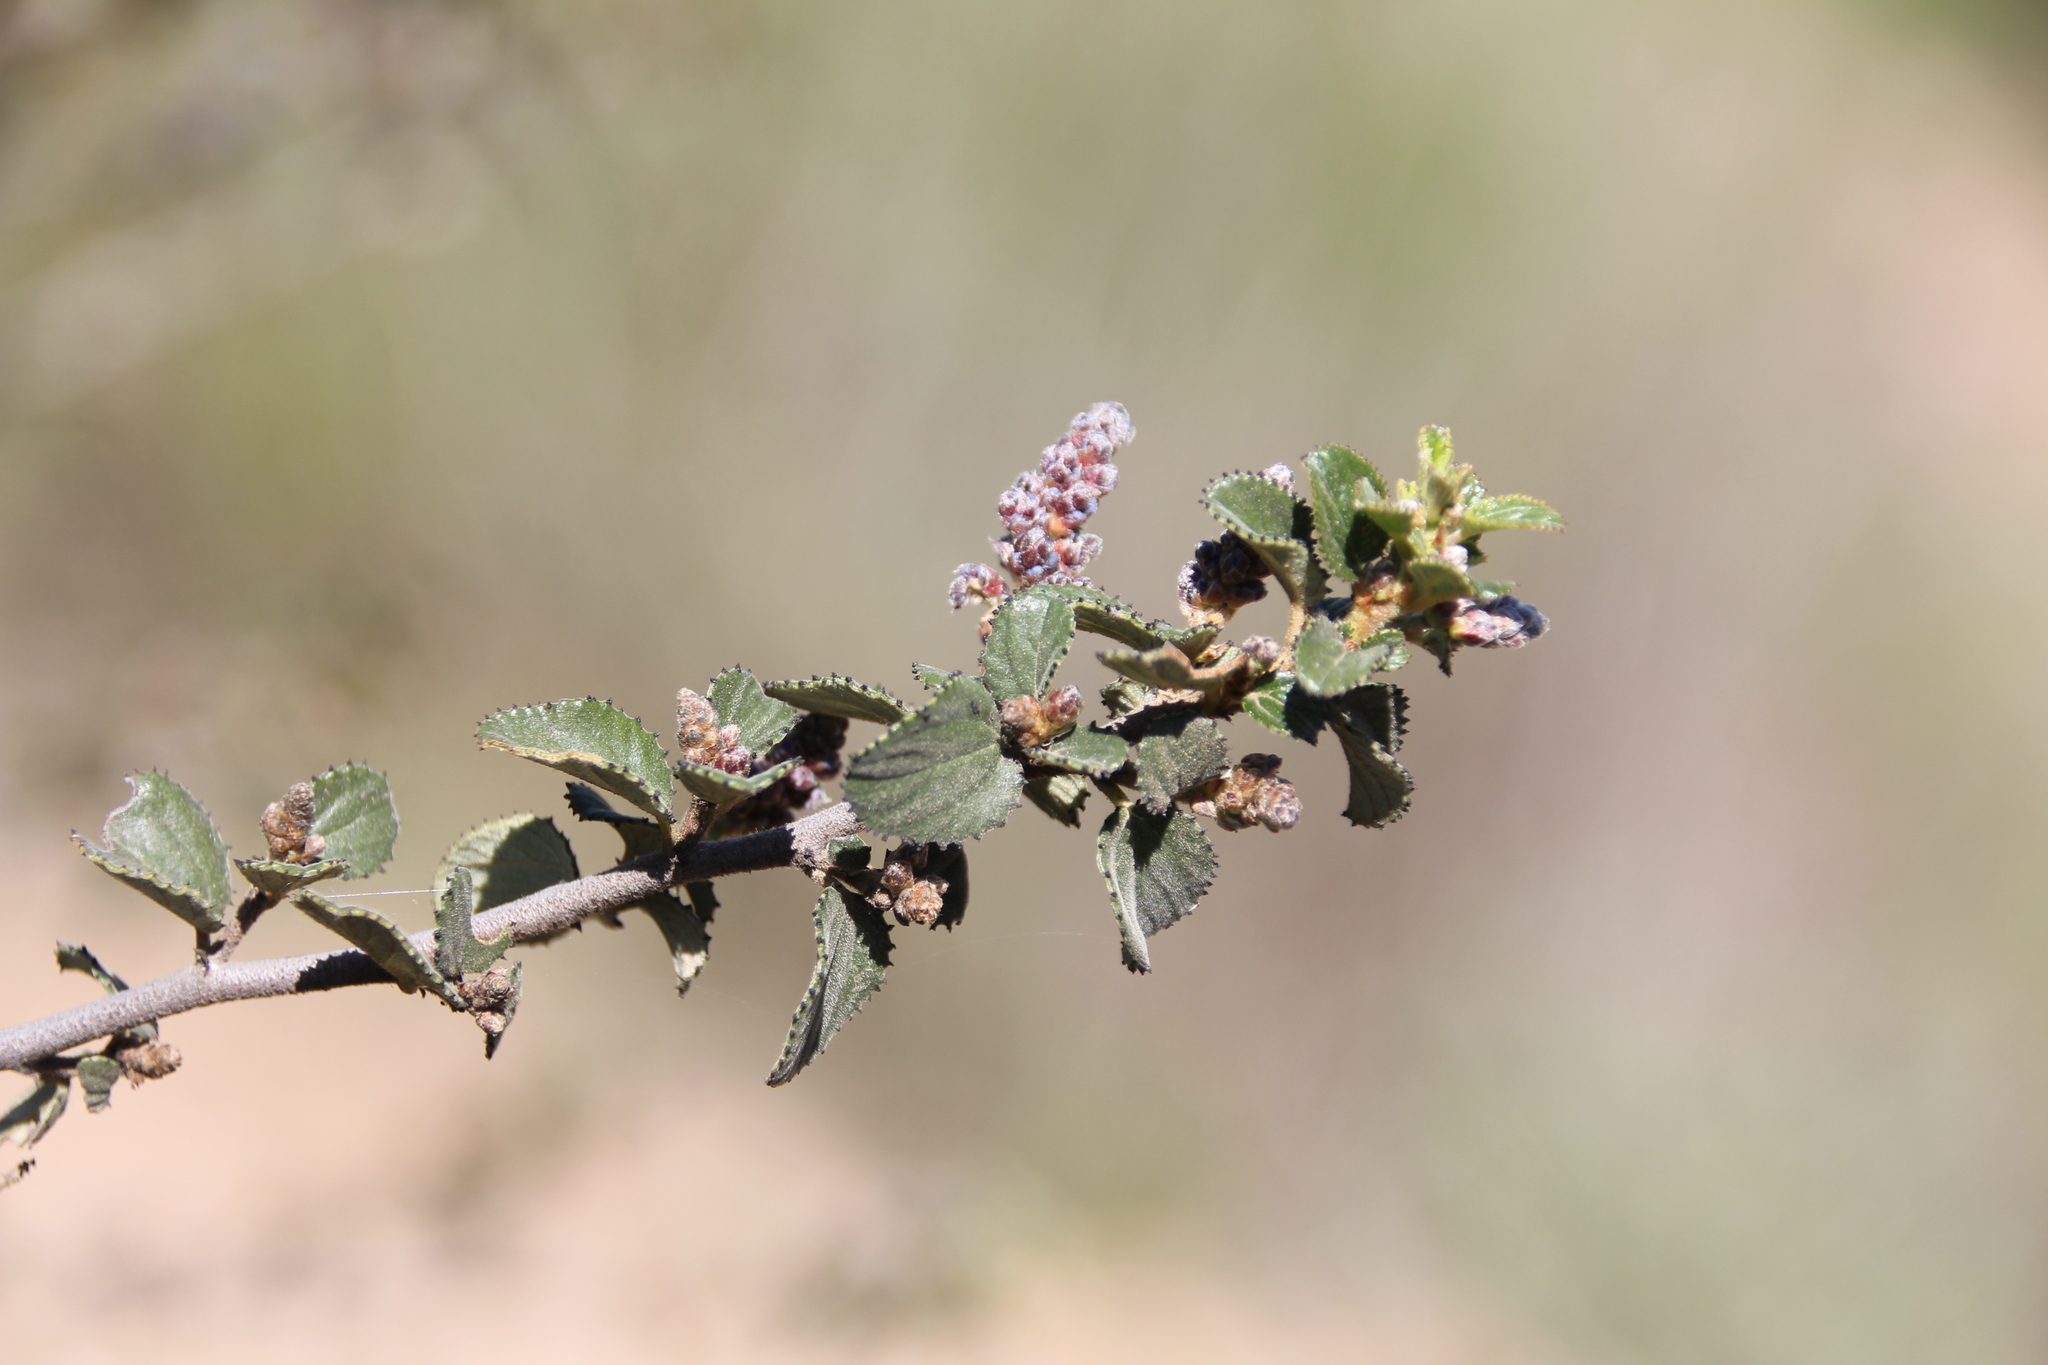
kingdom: Plantae
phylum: Tracheophyta
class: Magnoliopsida
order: Rosales
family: Rhamnaceae
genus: Ceanothus
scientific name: Ceanothus tomentosus
